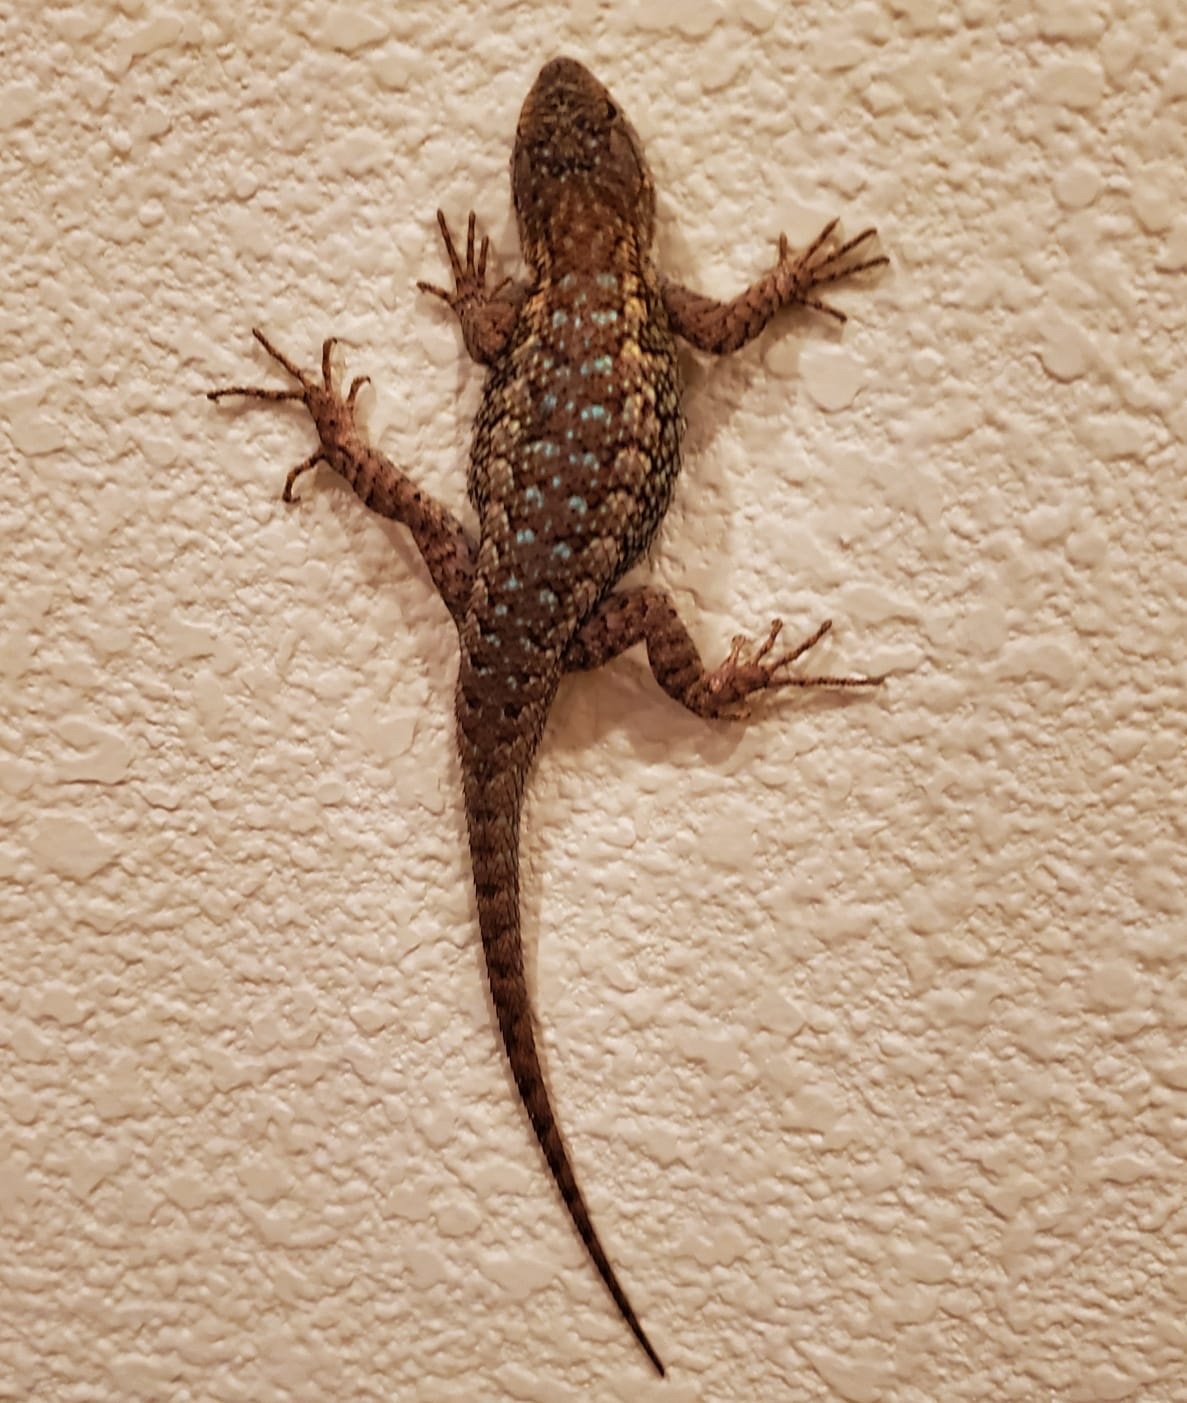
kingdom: Animalia
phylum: Chordata
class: Squamata
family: Phrynosomatidae
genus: Sceloporus
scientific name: Sceloporus occidentalis
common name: Western fence lizard
